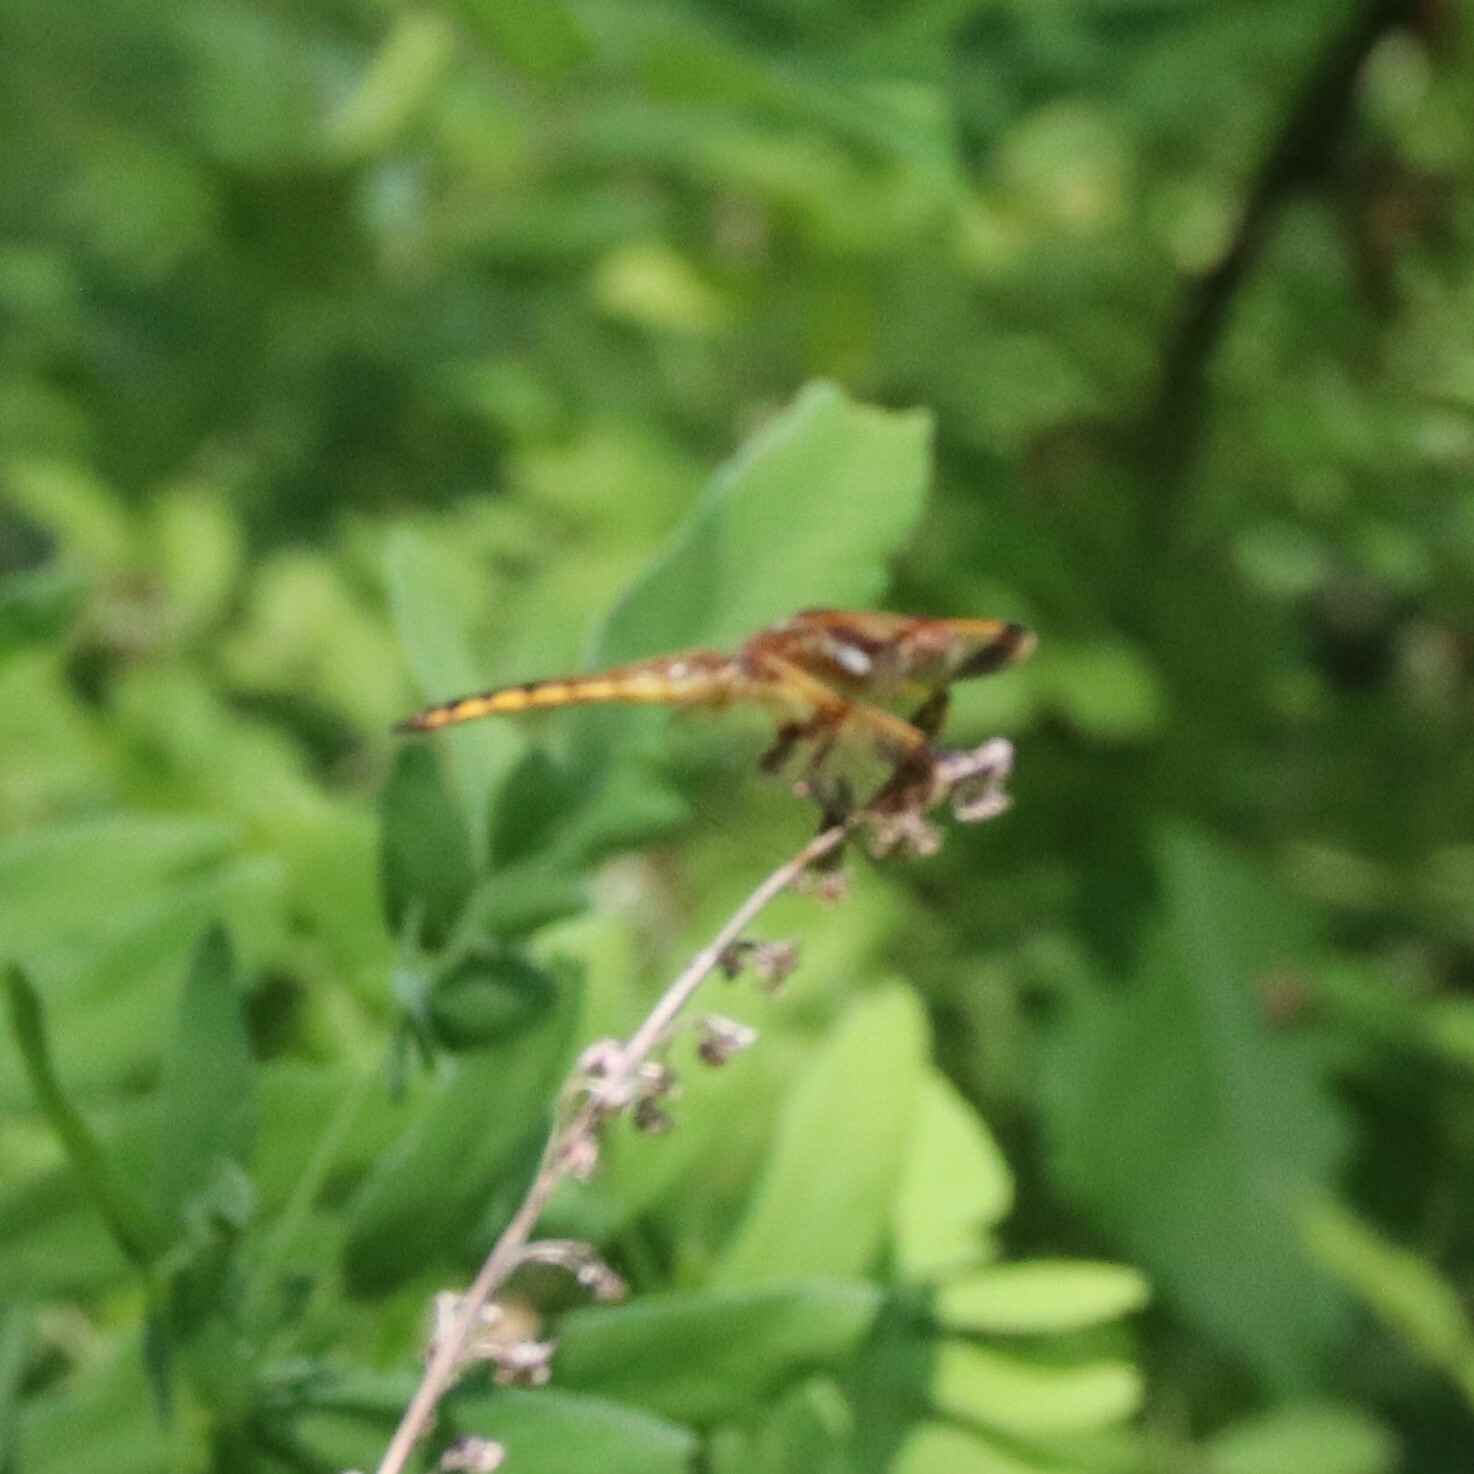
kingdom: Animalia
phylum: Arthropoda
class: Insecta
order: Odonata
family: Libellulidae
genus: Libellula
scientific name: Libellula semifasciata
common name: Painted skimmer
